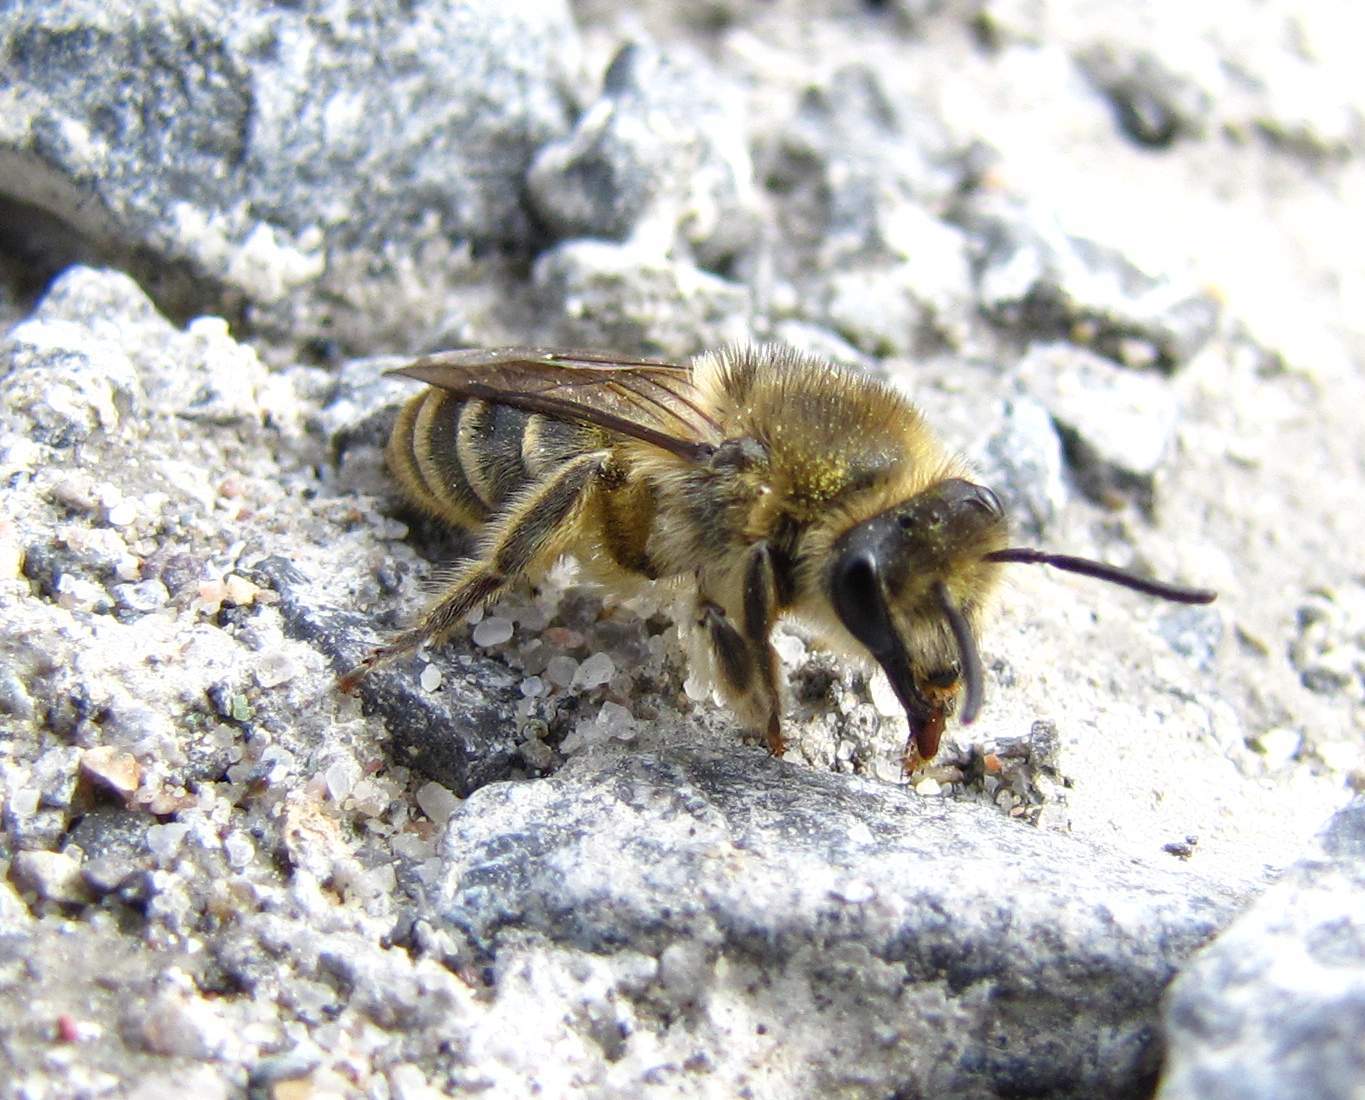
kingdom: Animalia
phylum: Arthropoda
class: Insecta
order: Hymenoptera
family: Colletidae
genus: Colletes
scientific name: Colletes inaequalis
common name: Unequal cellophane bee
